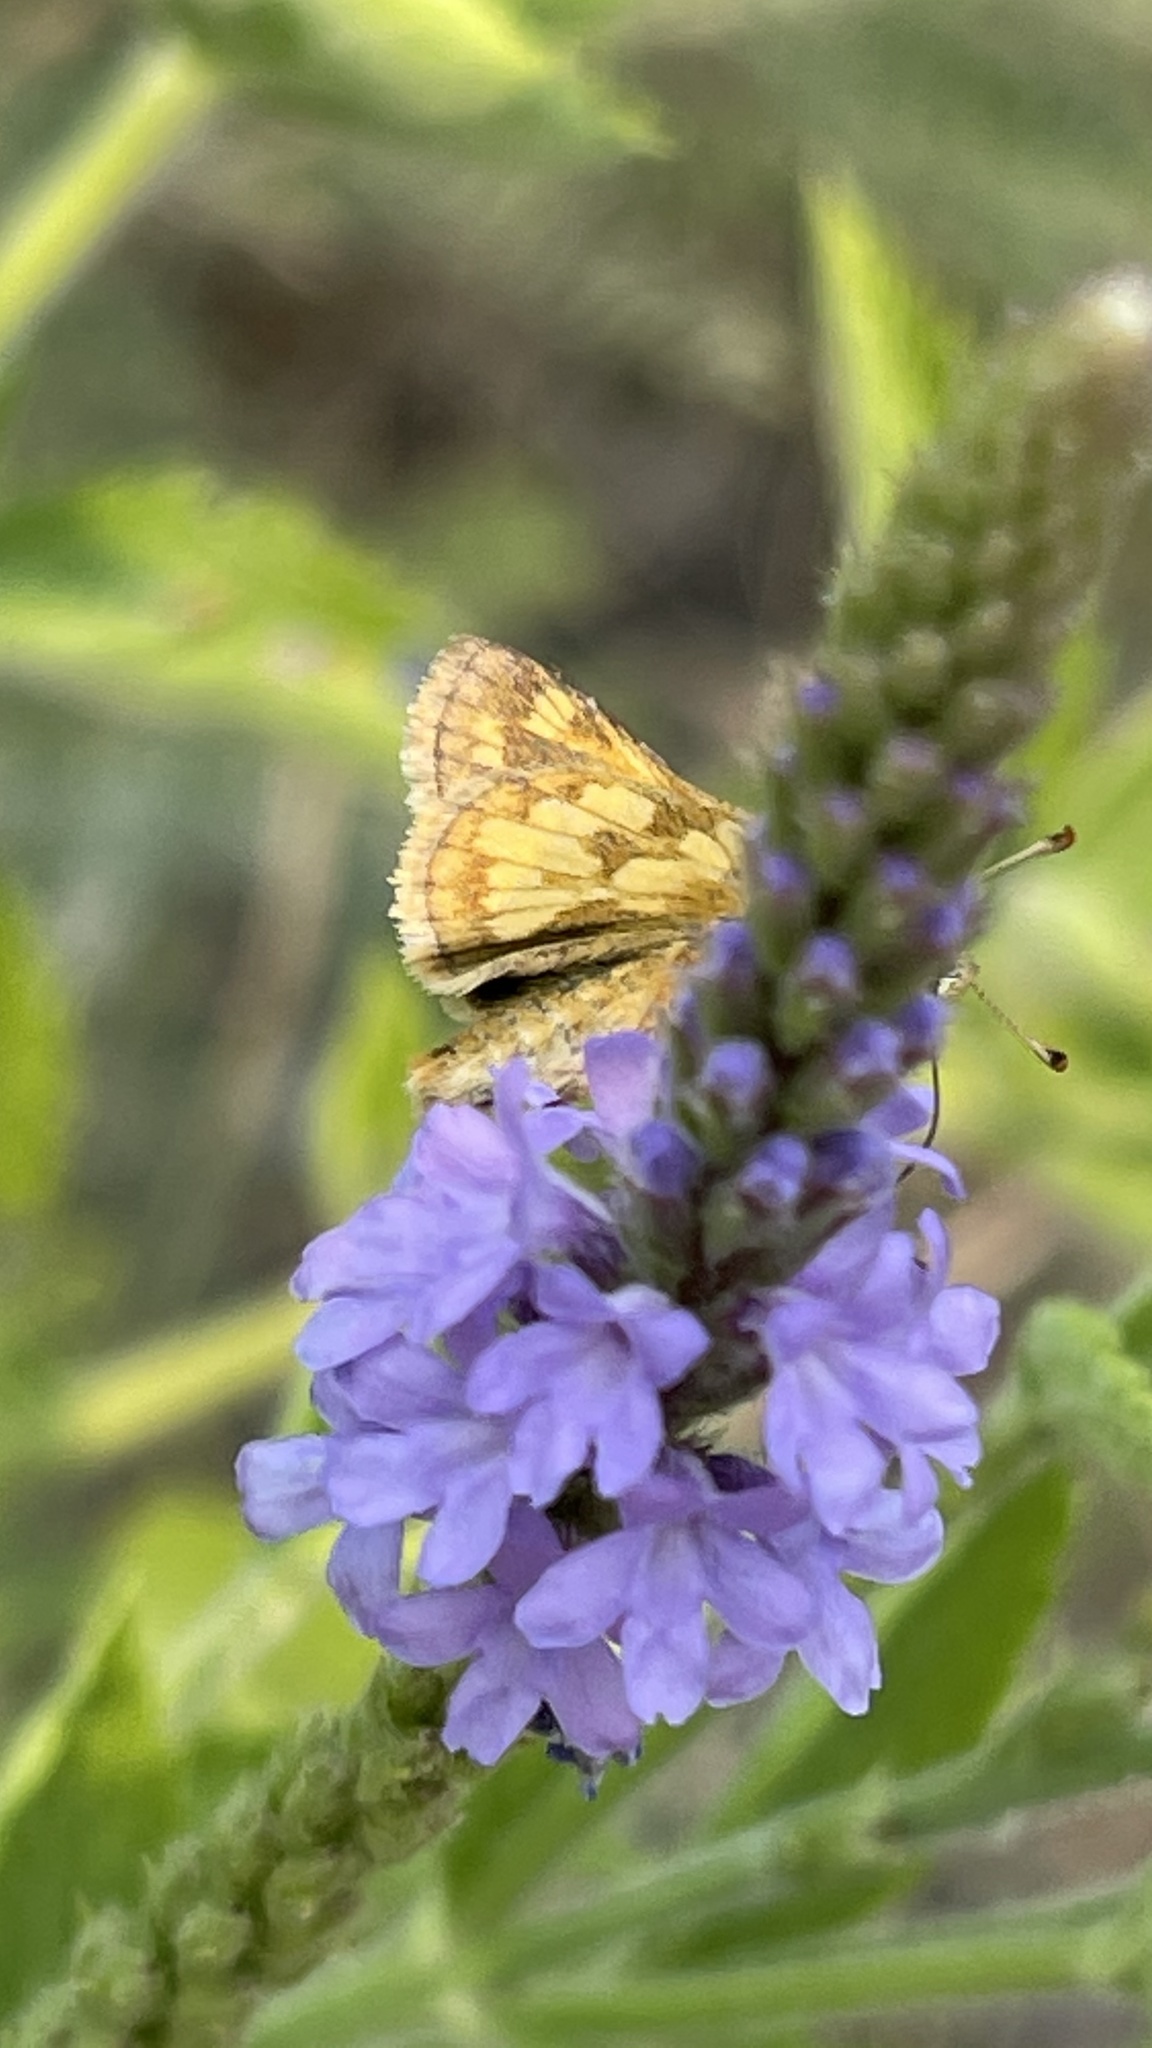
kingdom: Animalia
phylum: Arthropoda
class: Insecta
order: Lepidoptera
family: Hesperiidae
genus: Polites
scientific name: Polites coras
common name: Peck's skipper
